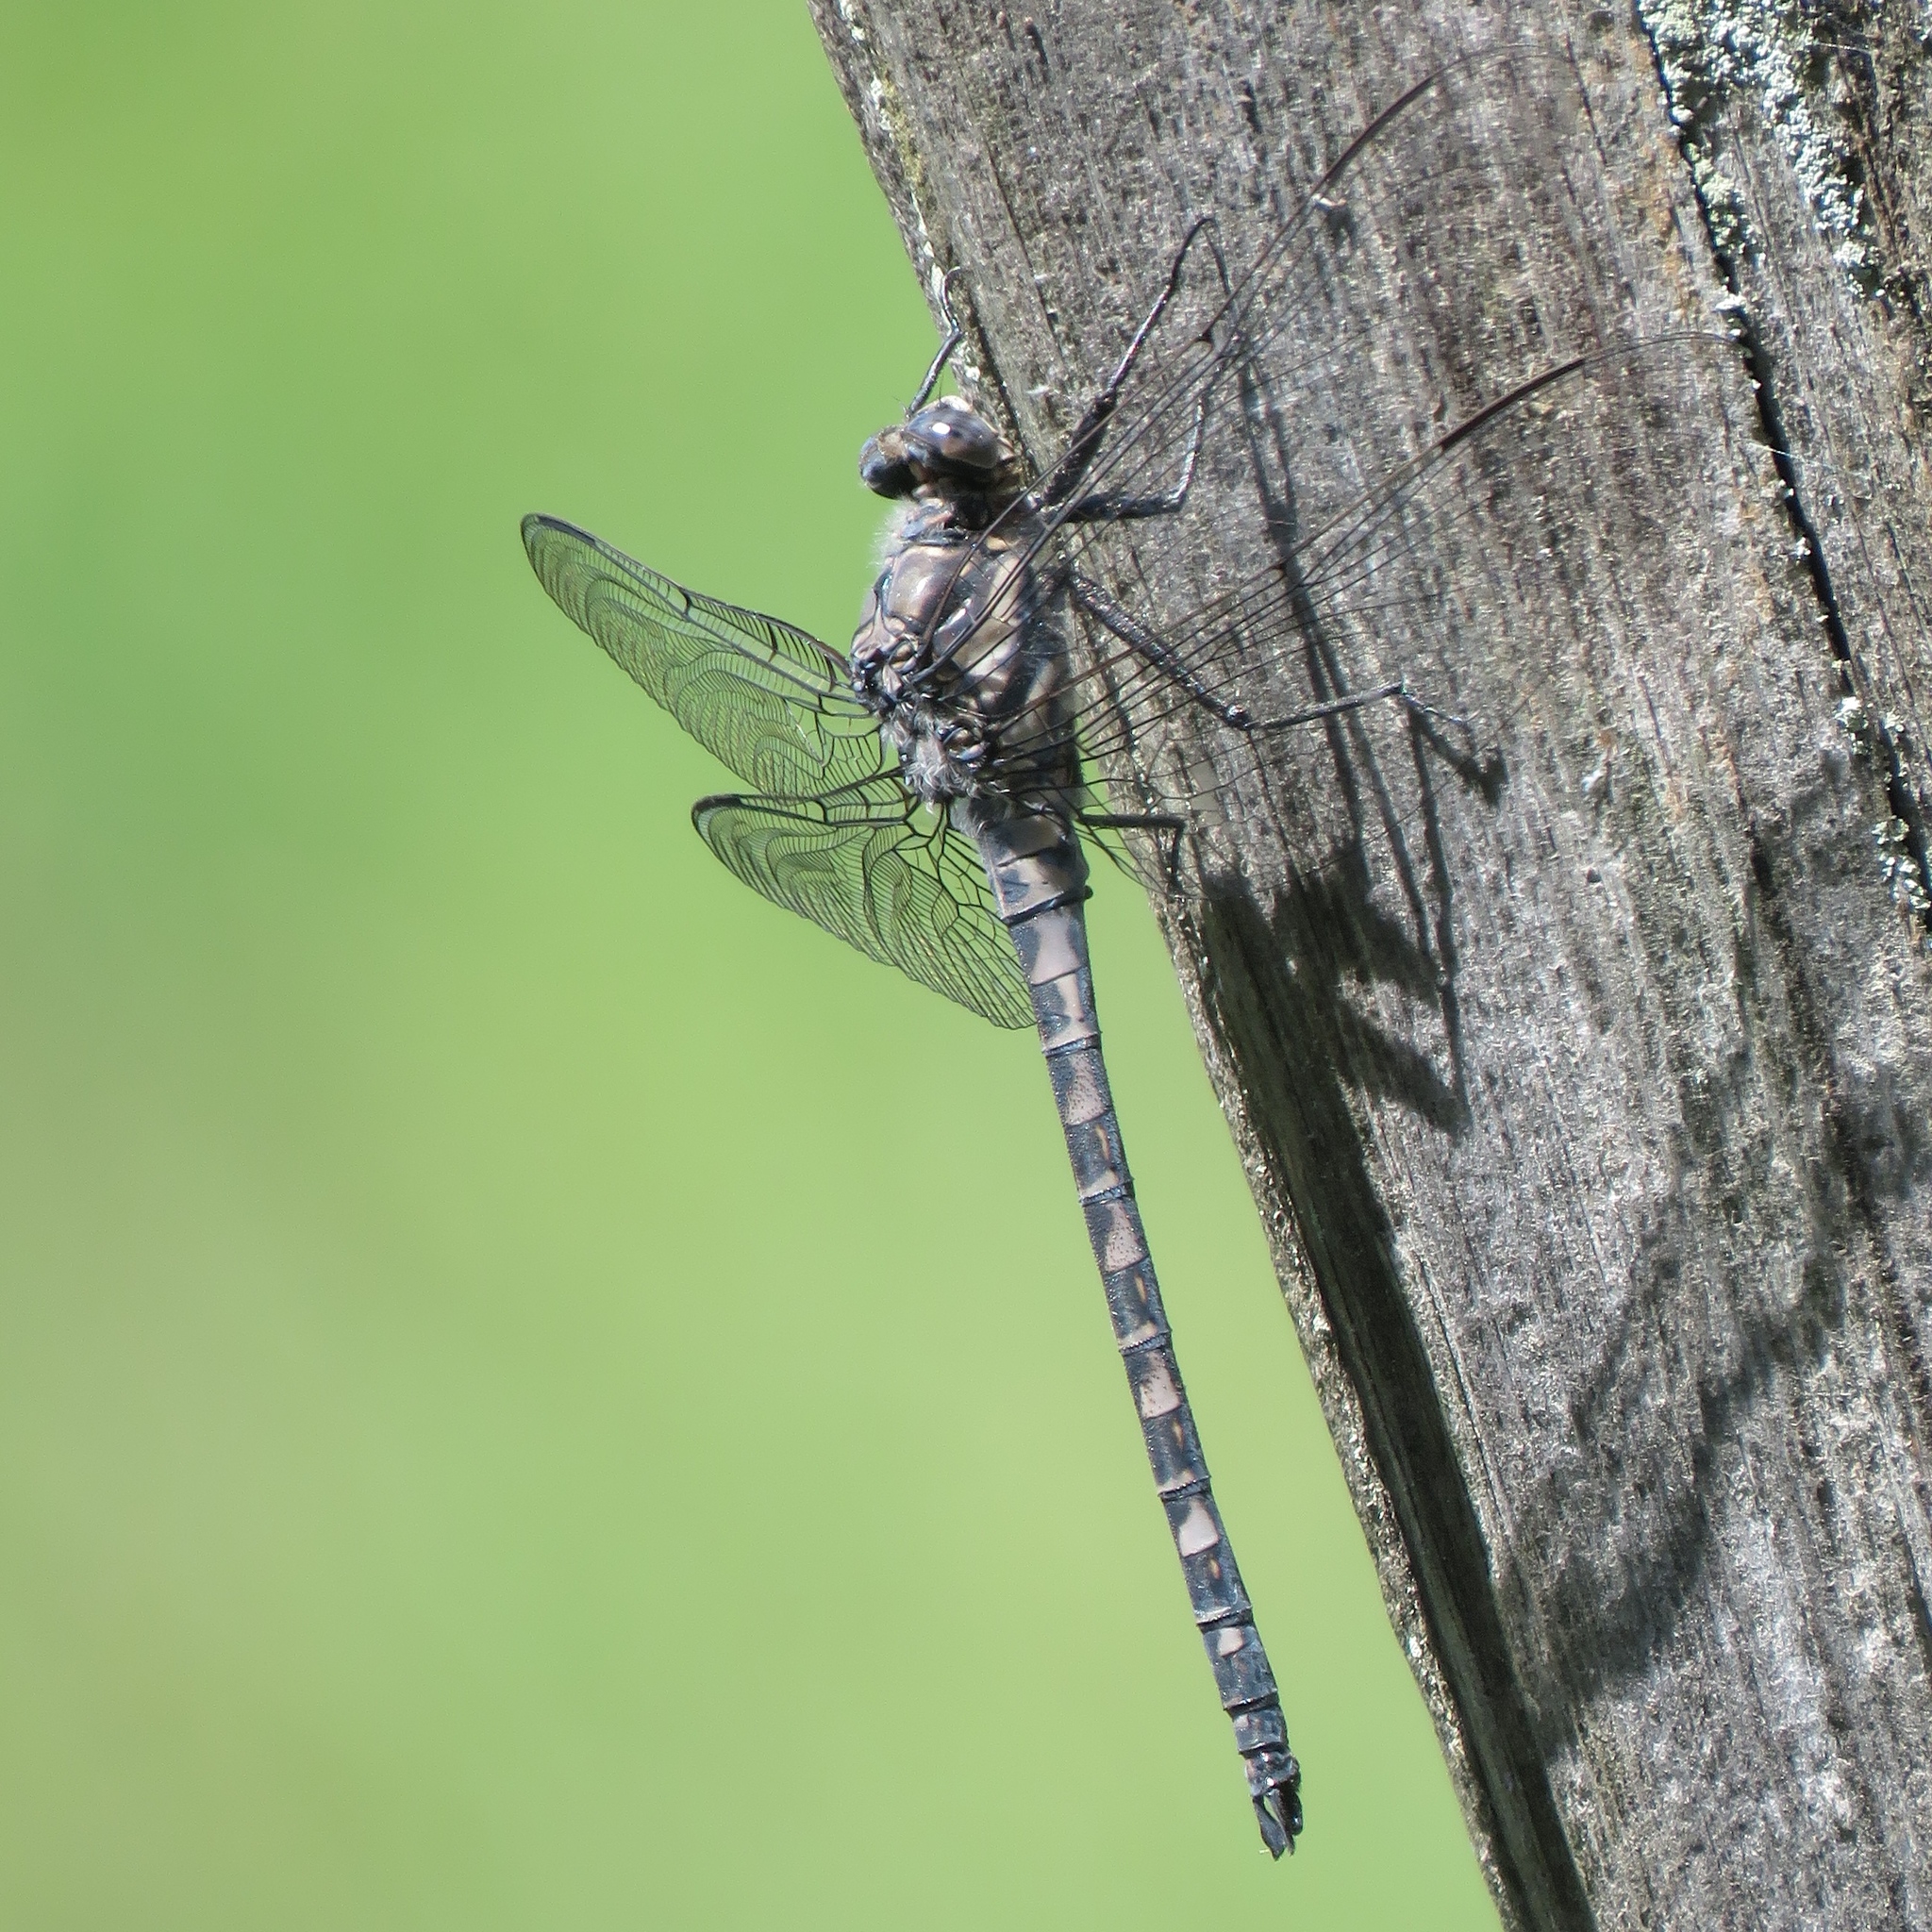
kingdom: Animalia
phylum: Arthropoda
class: Insecta
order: Odonata
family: Petaluridae
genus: Tachopteryx
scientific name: Tachopteryx thoreyi
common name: Gray petaltail
